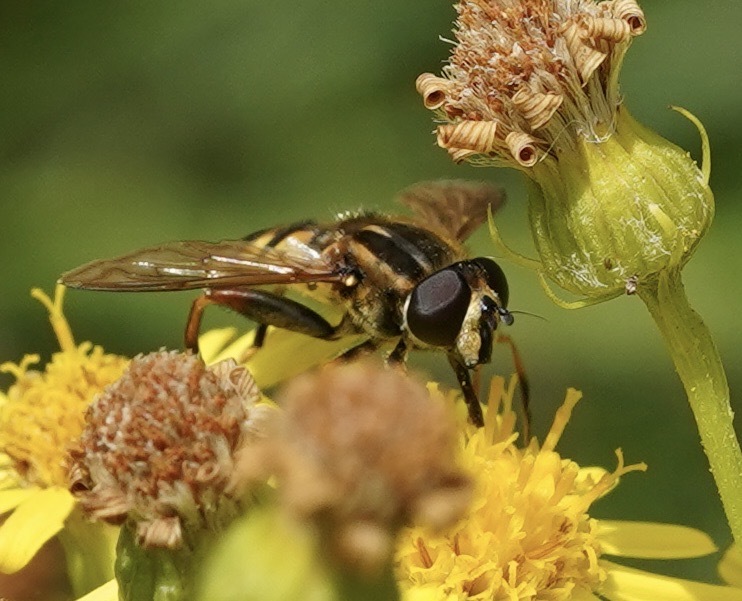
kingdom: Animalia
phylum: Arthropoda
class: Insecta
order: Diptera
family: Syrphidae
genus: Helophilus
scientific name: Helophilus pendulus
